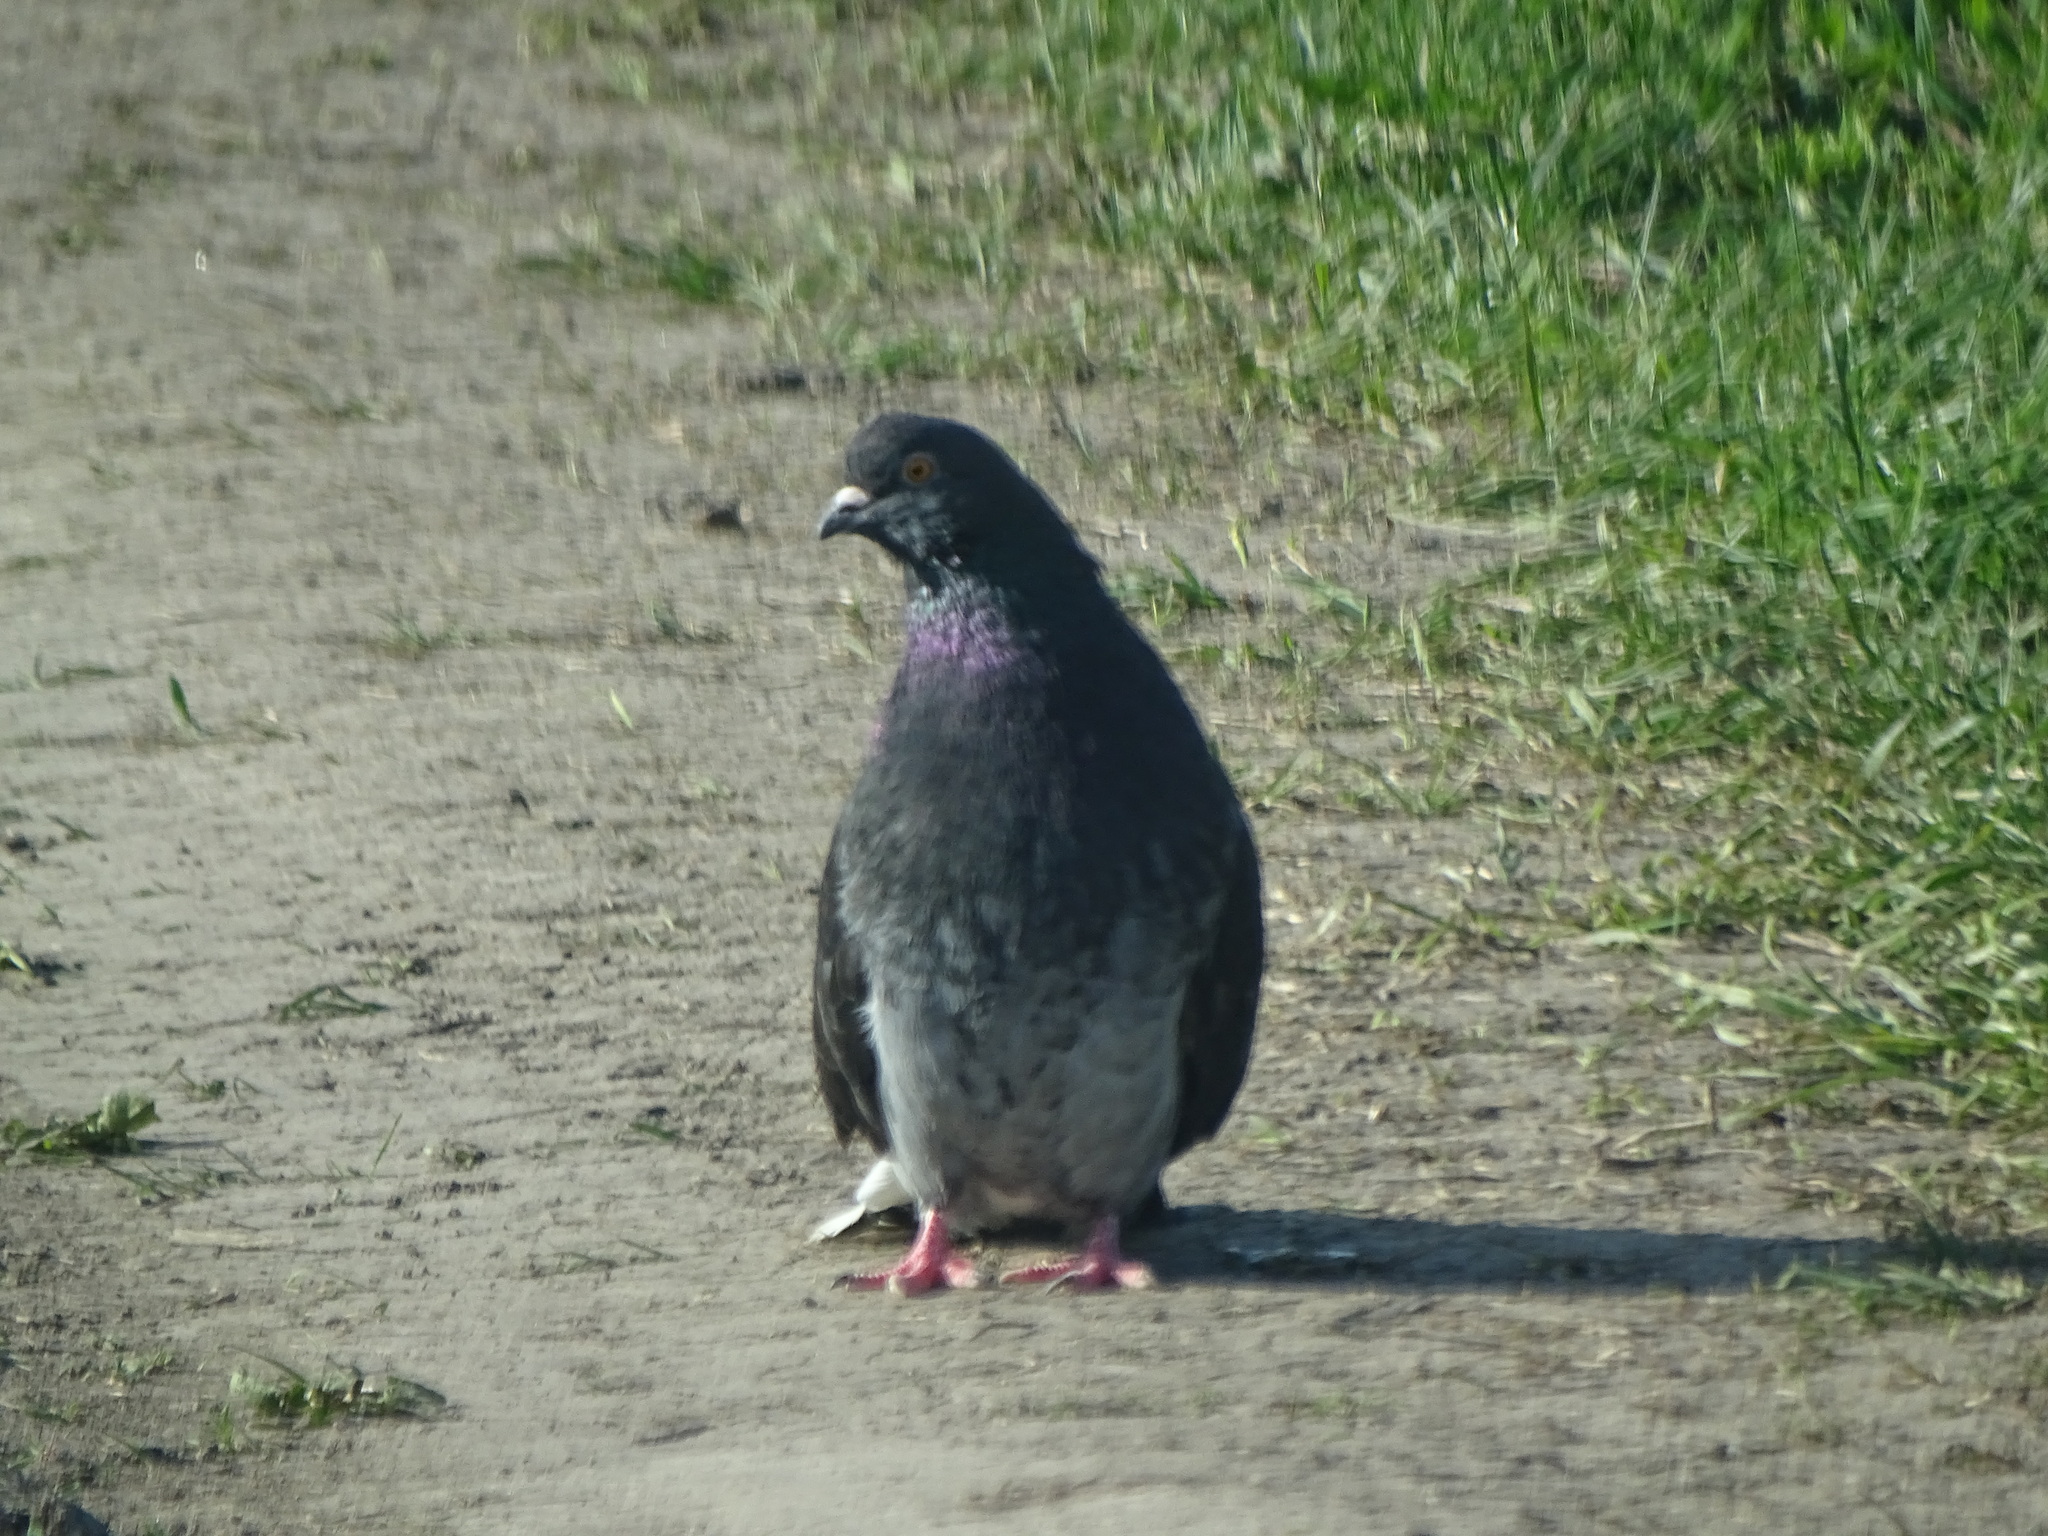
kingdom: Animalia
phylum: Chordata
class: Aves
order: Columbiformes
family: Columbidae
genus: Columba
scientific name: Columba livia
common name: Rock pigeon
